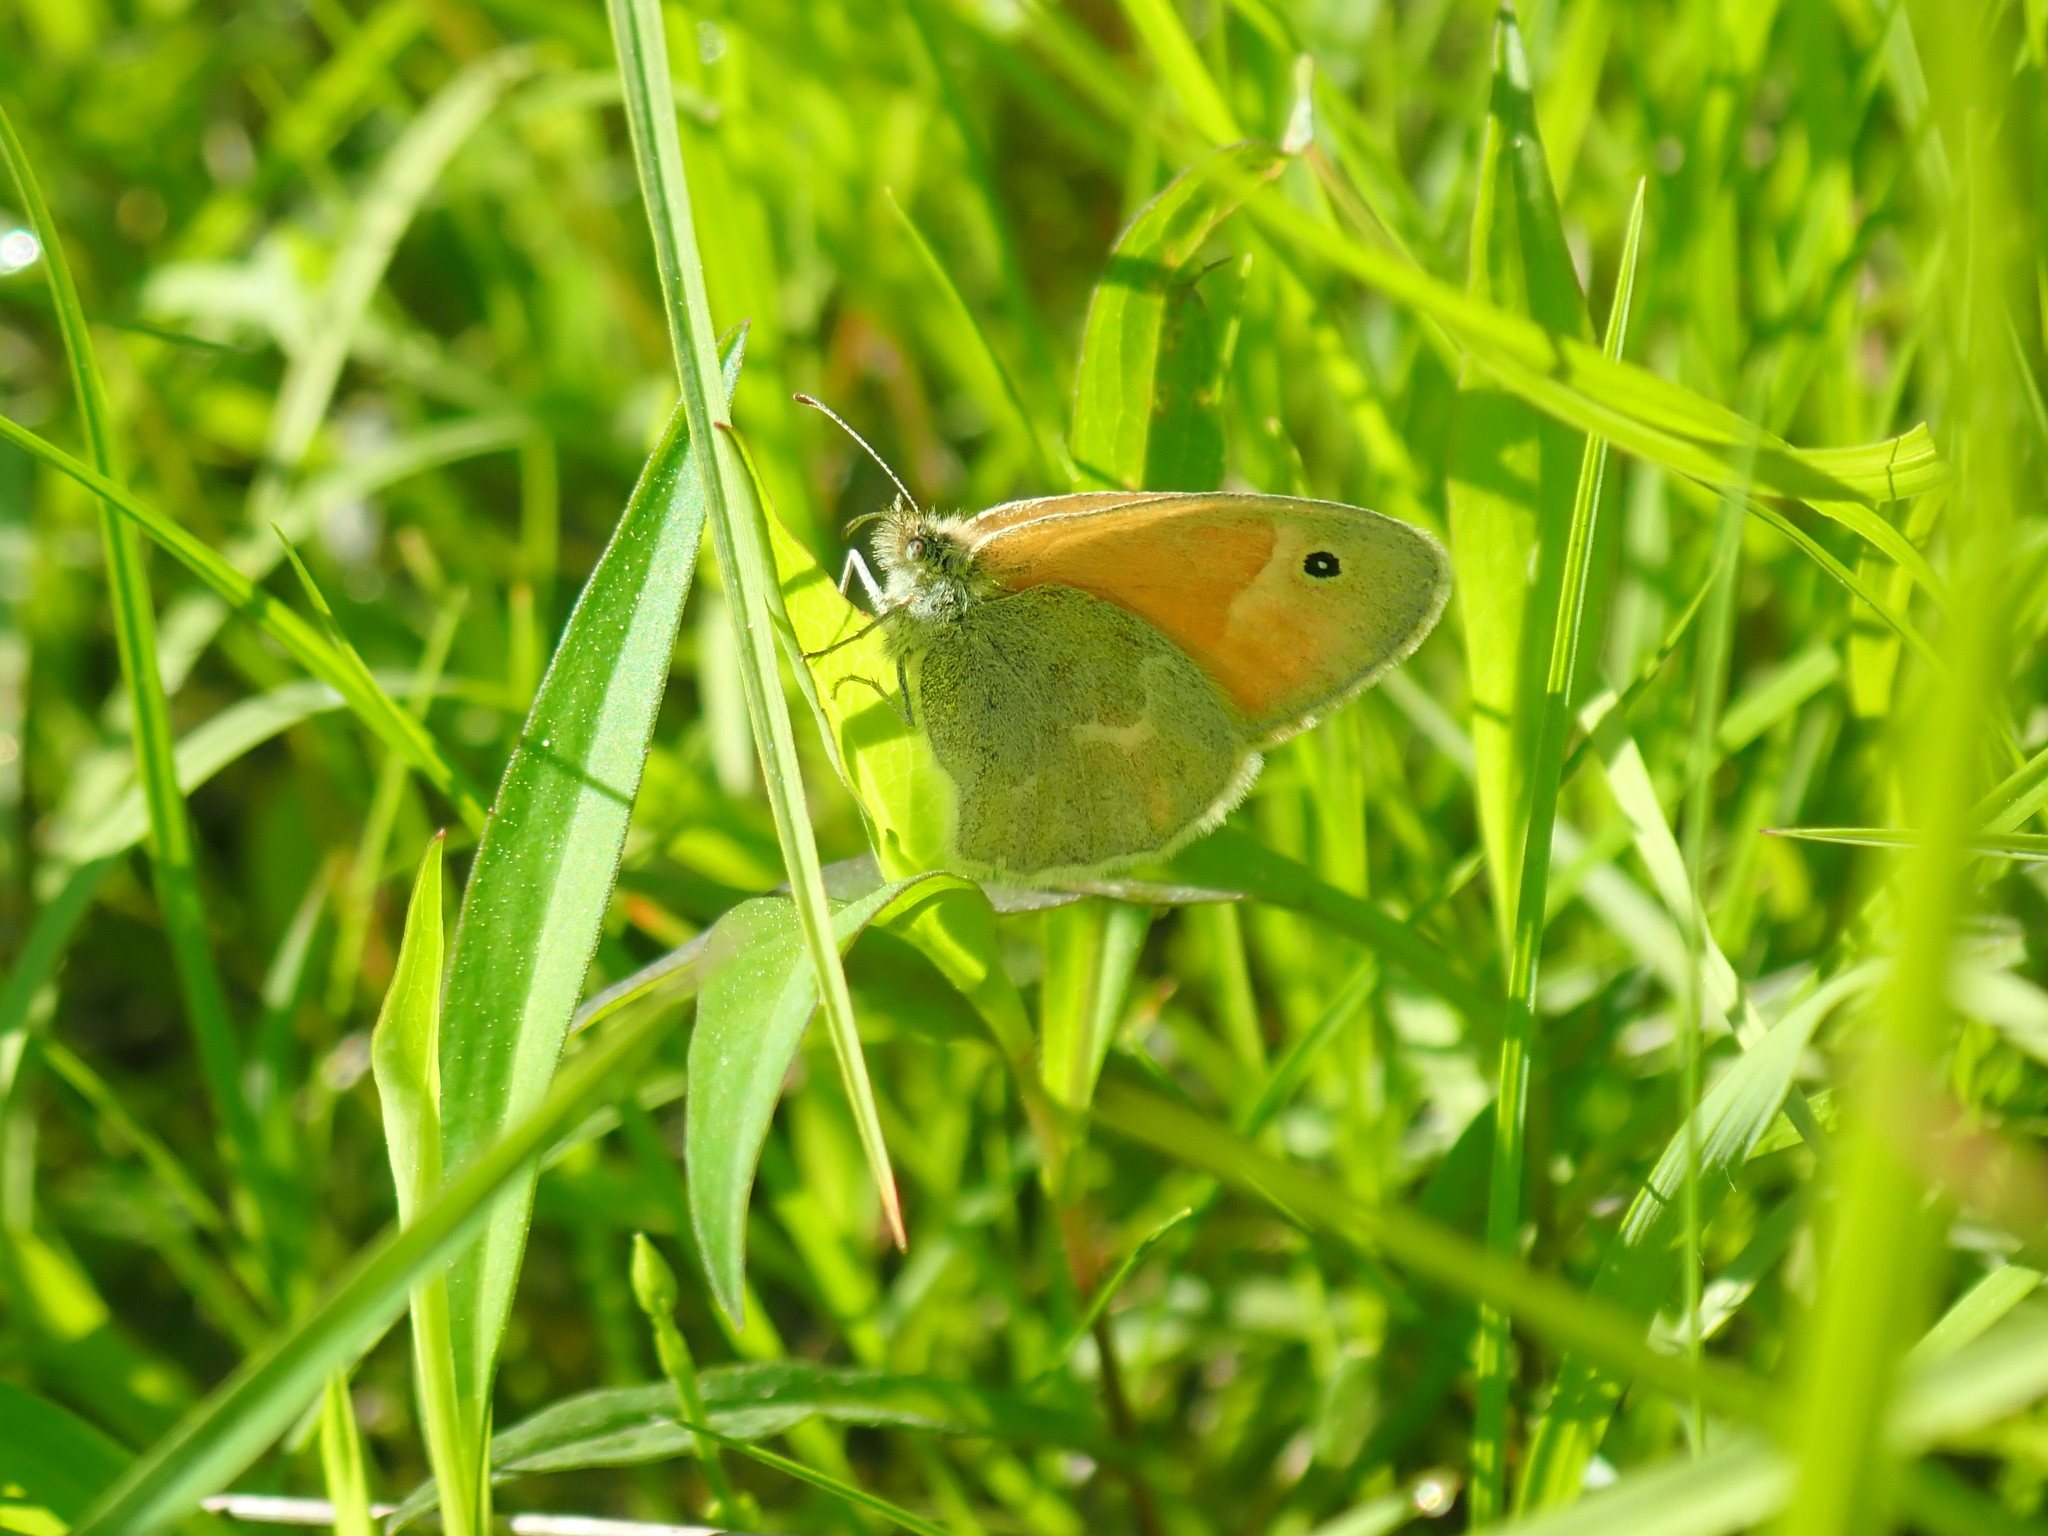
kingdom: Animalia
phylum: Arthropoda
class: Insecta
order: Lepidoptera
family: Nymphalidae
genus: Coenonympha
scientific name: Coenonympha california
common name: Common ringlet
